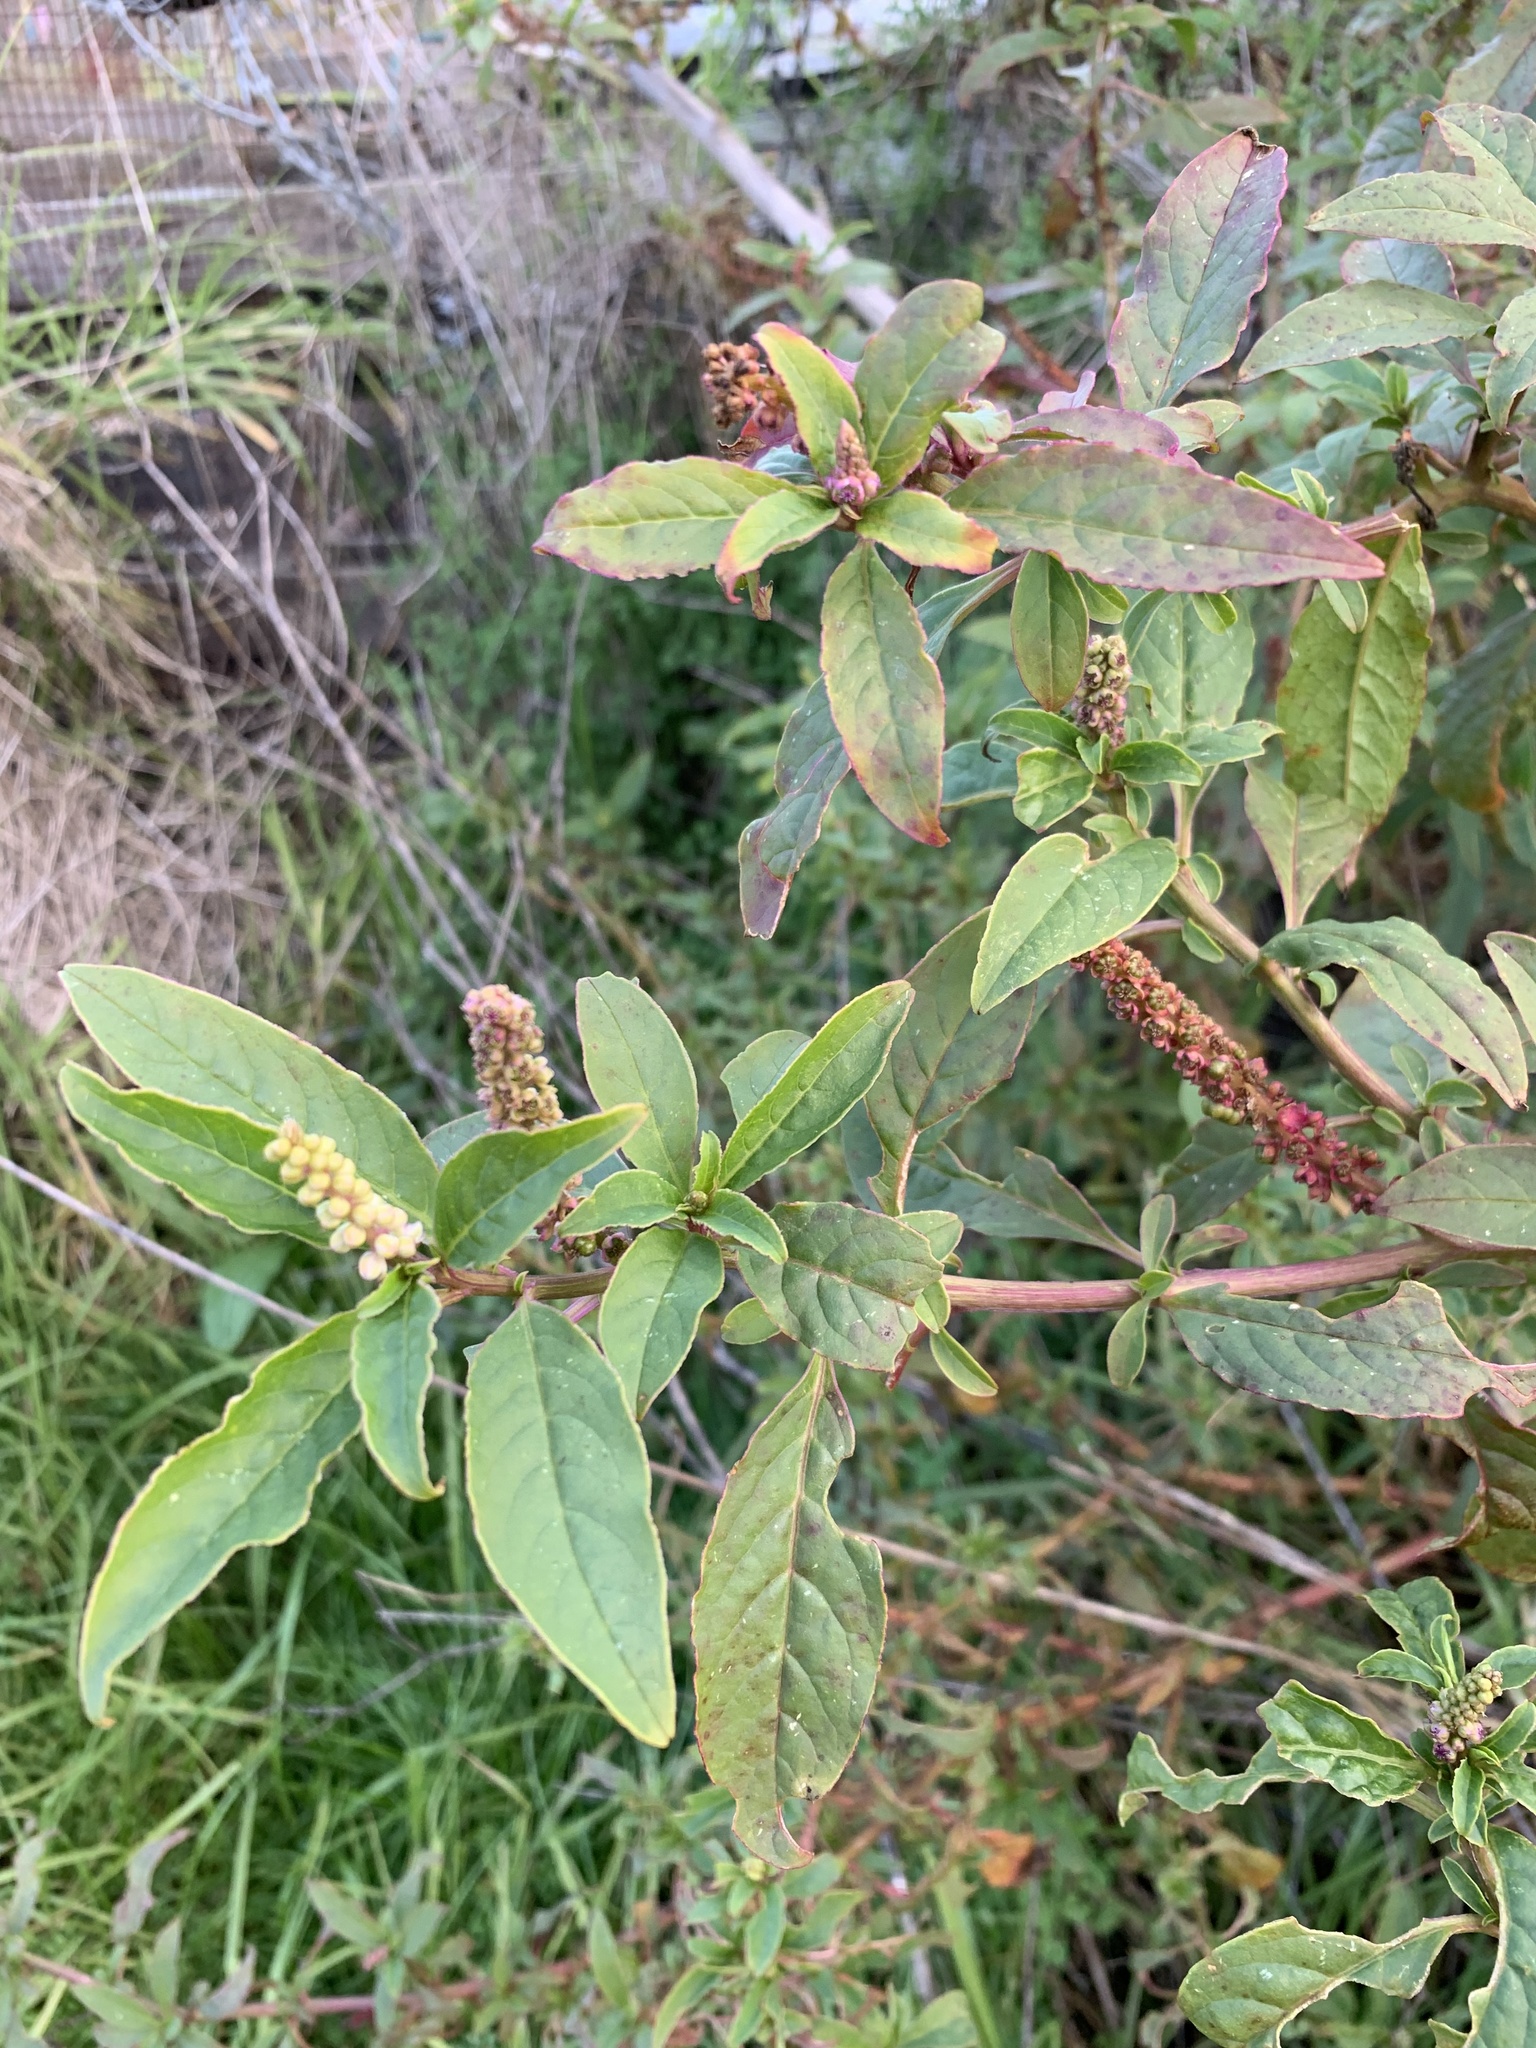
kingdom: Plantae
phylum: Tracheophyta
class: Magnoliopsida
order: Caryophyllales
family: Phytolaccaceae
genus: Phytolacca
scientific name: Phytolacca icosandra
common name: Button pokeweed
